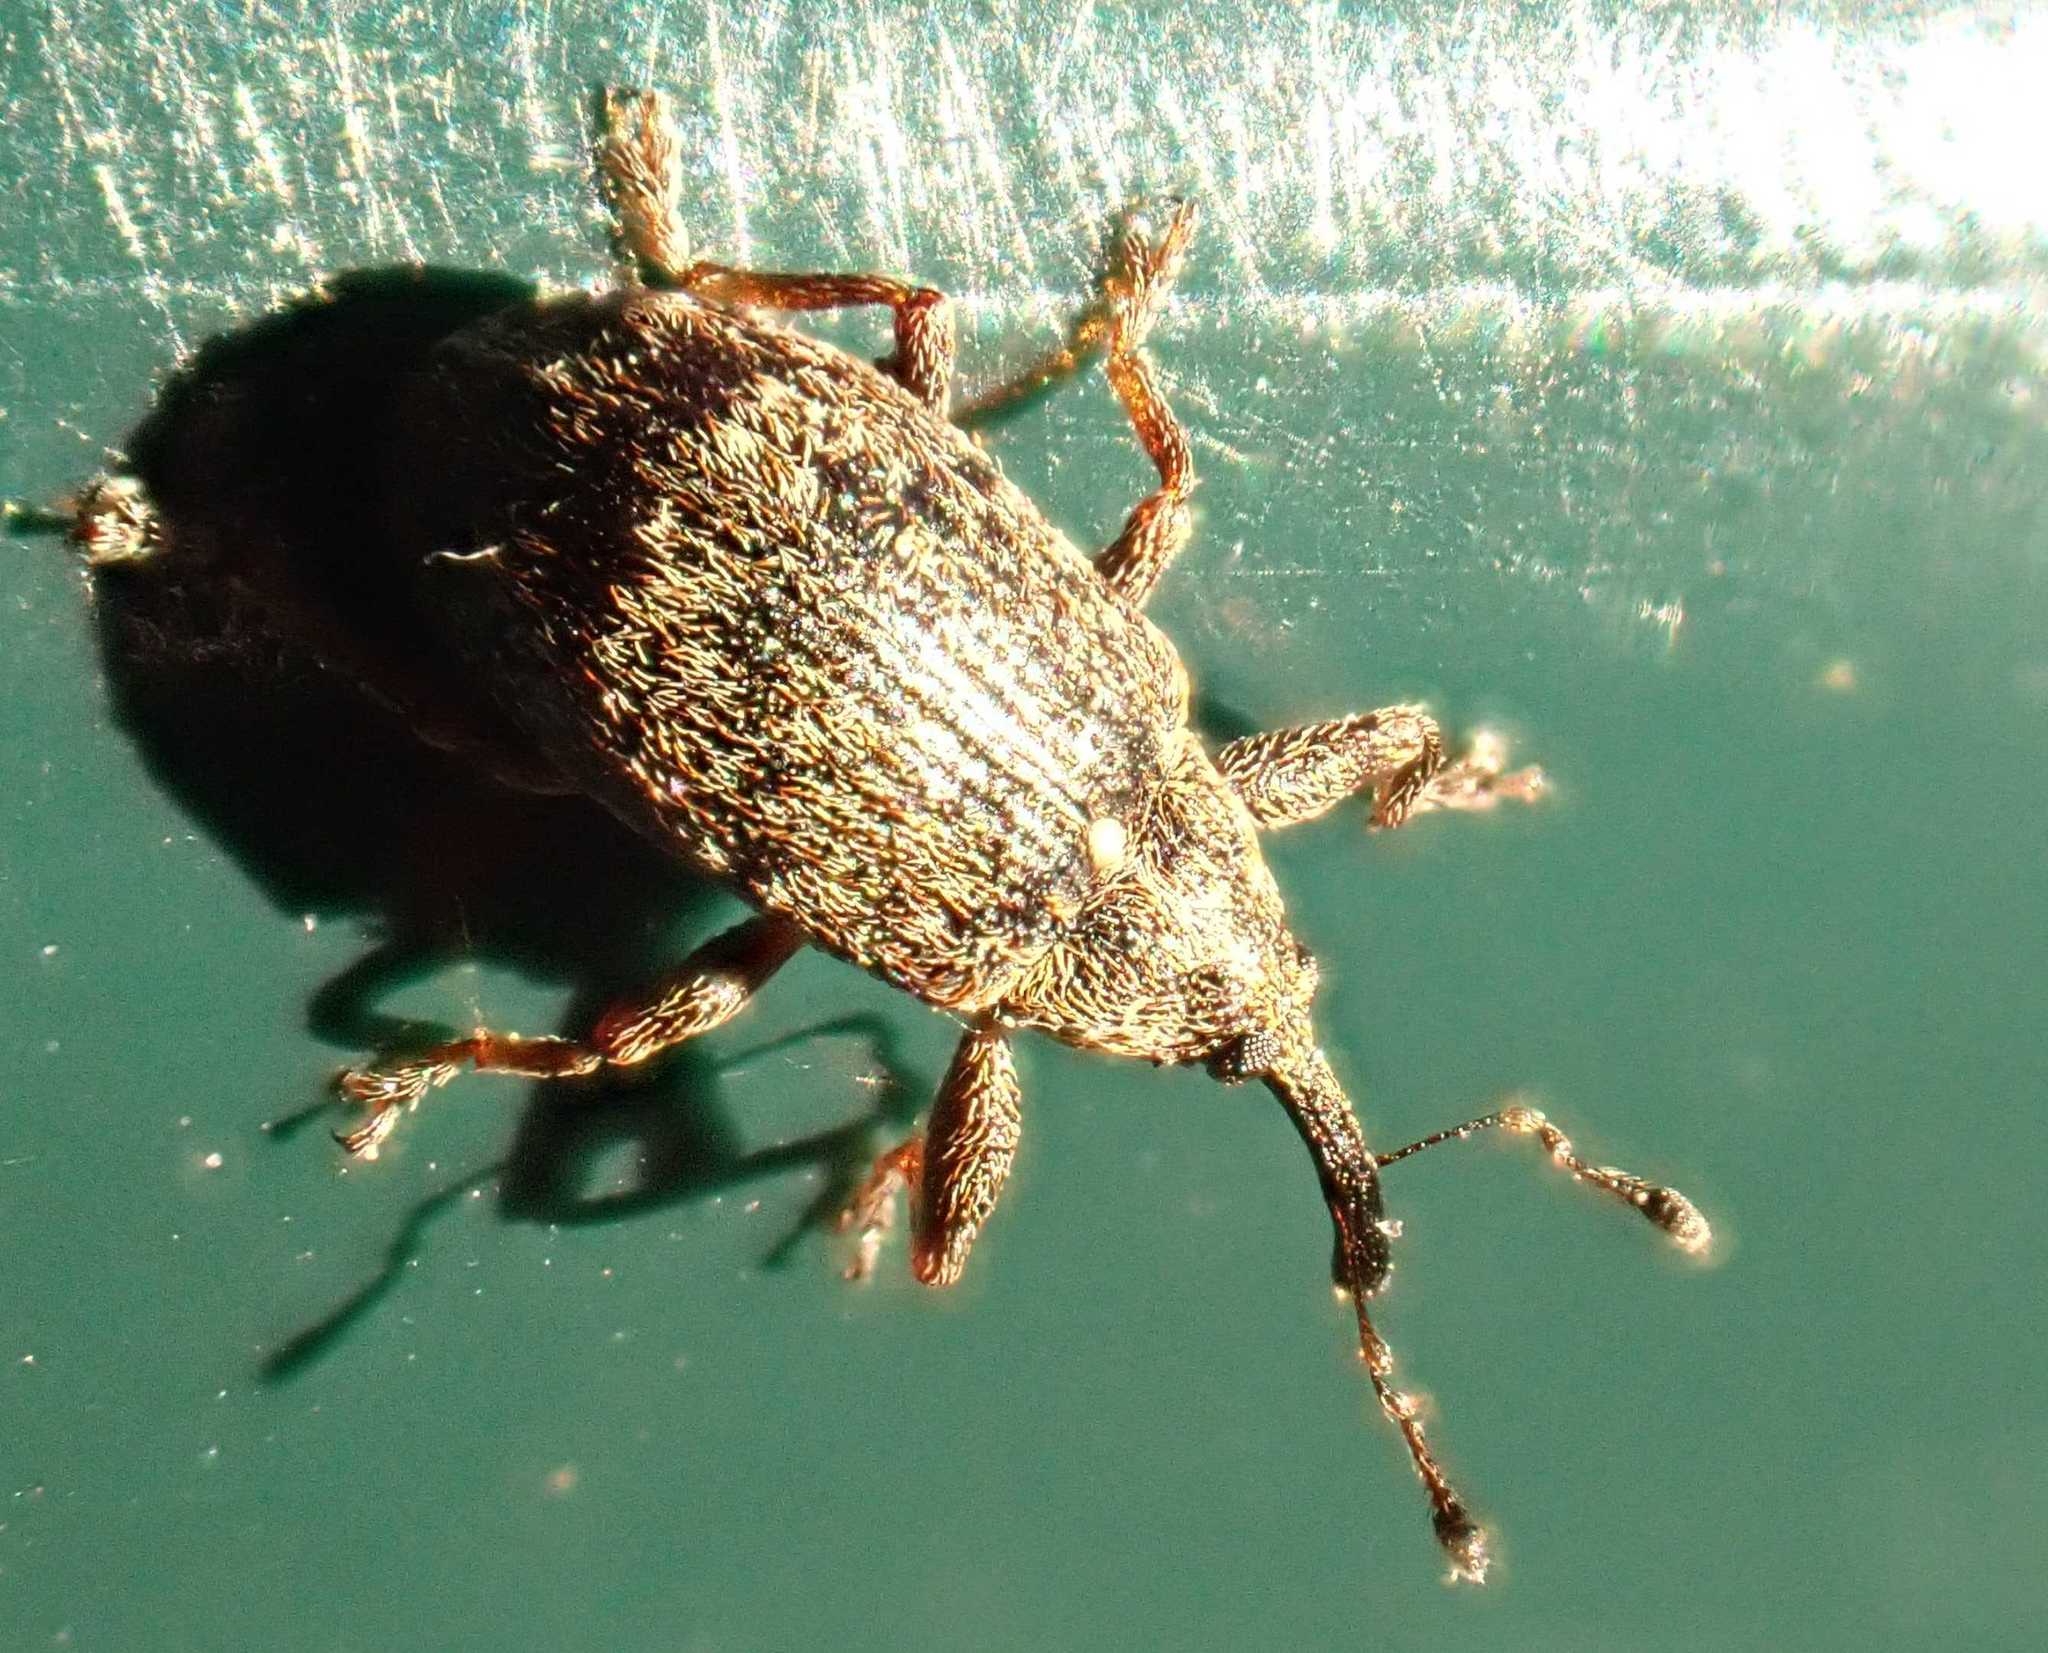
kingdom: Animalia
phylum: Arthropoda
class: Insecta
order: Coleoptera
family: Curculionidae
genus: Anthonomus
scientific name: Anthonomus pomorum
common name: Apple-blossom weevil
